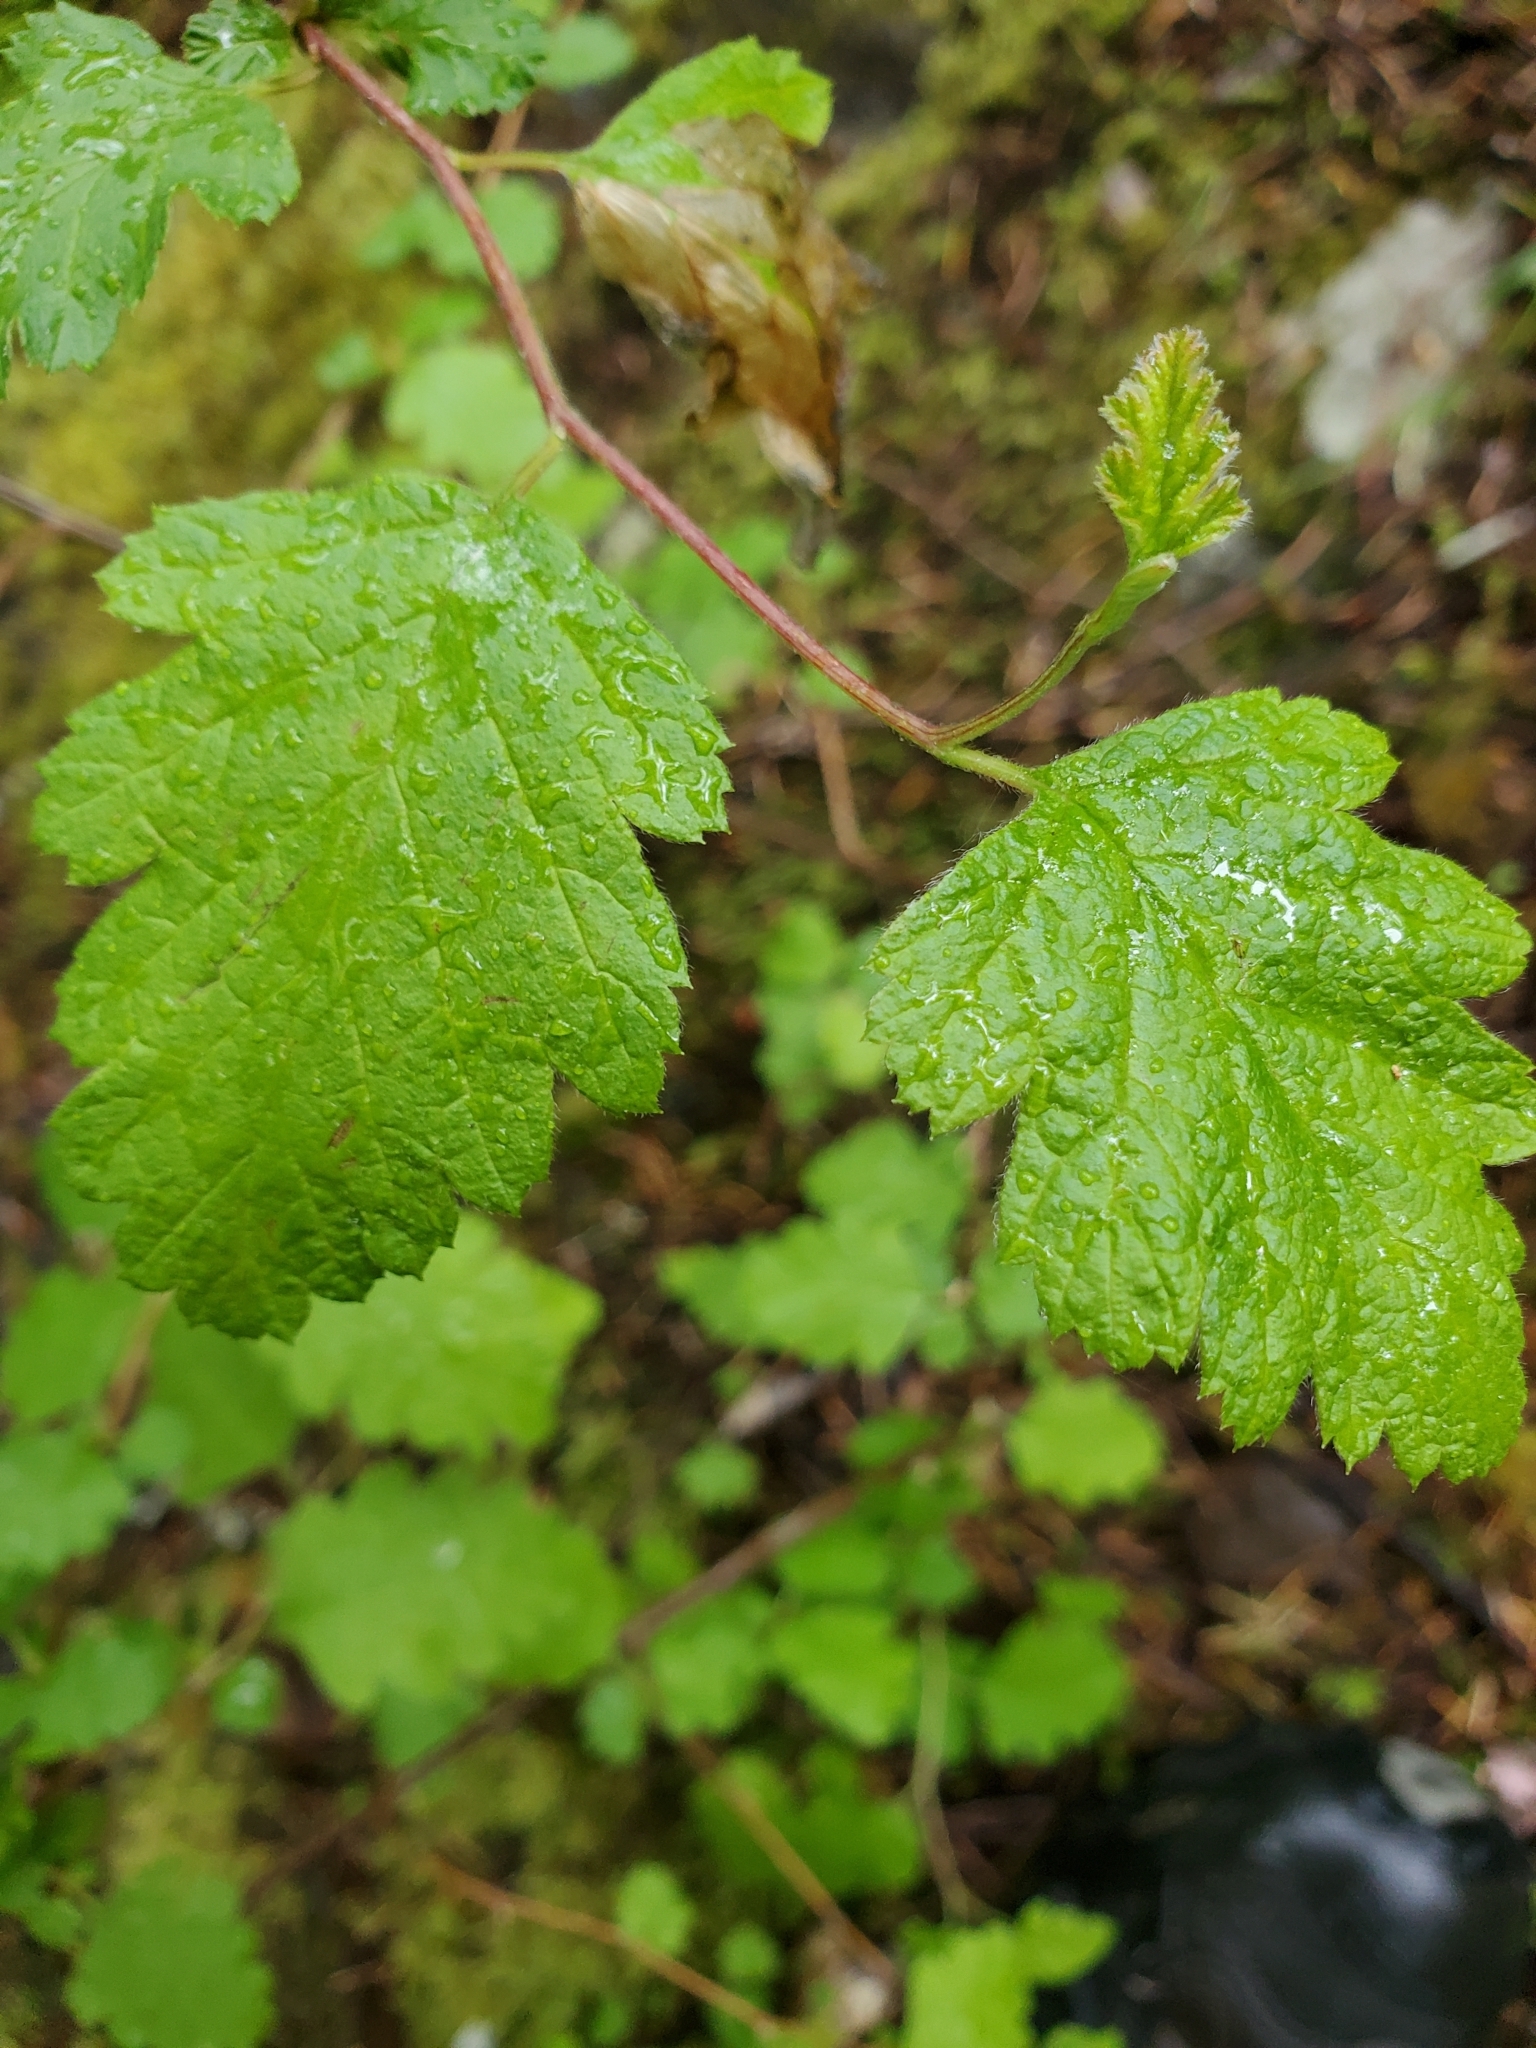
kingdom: Plantae
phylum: Tracheophyta
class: Magnoliopsida
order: Rosales
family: Rosaceae
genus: Holodiscus
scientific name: Holodiscus discolor
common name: Oceanspray
